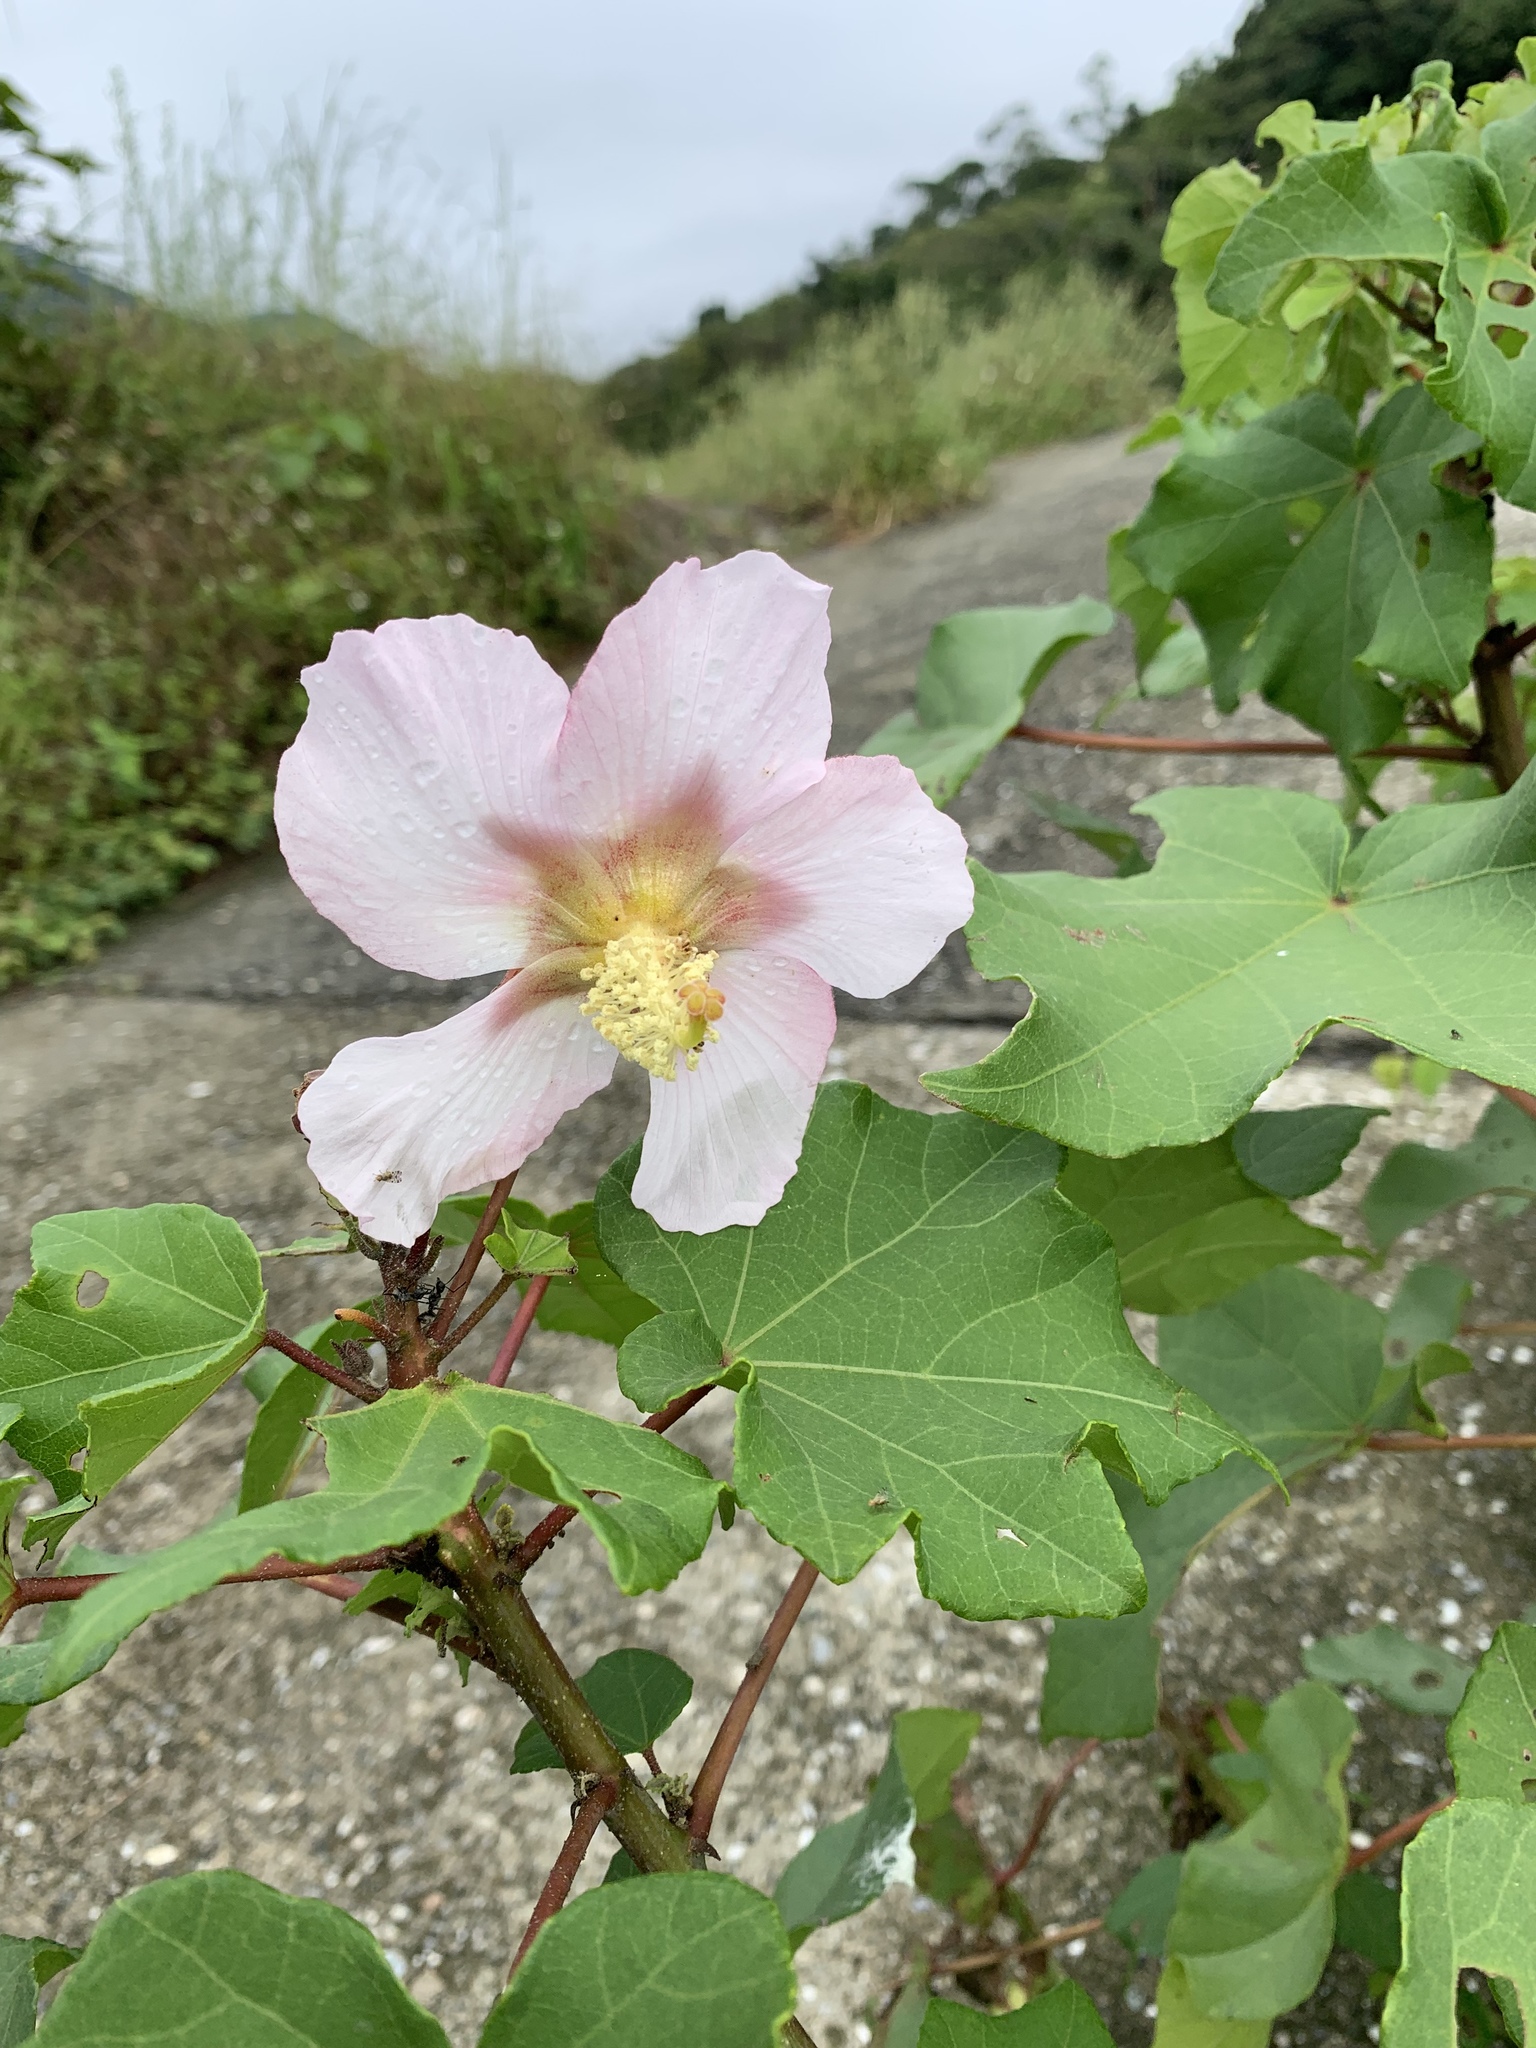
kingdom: Plantae
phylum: Tracheophyta
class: Magnoliopsida
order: Malvales
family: Malvaceae
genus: Hibiscus
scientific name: Hibiscus taiwanensis
